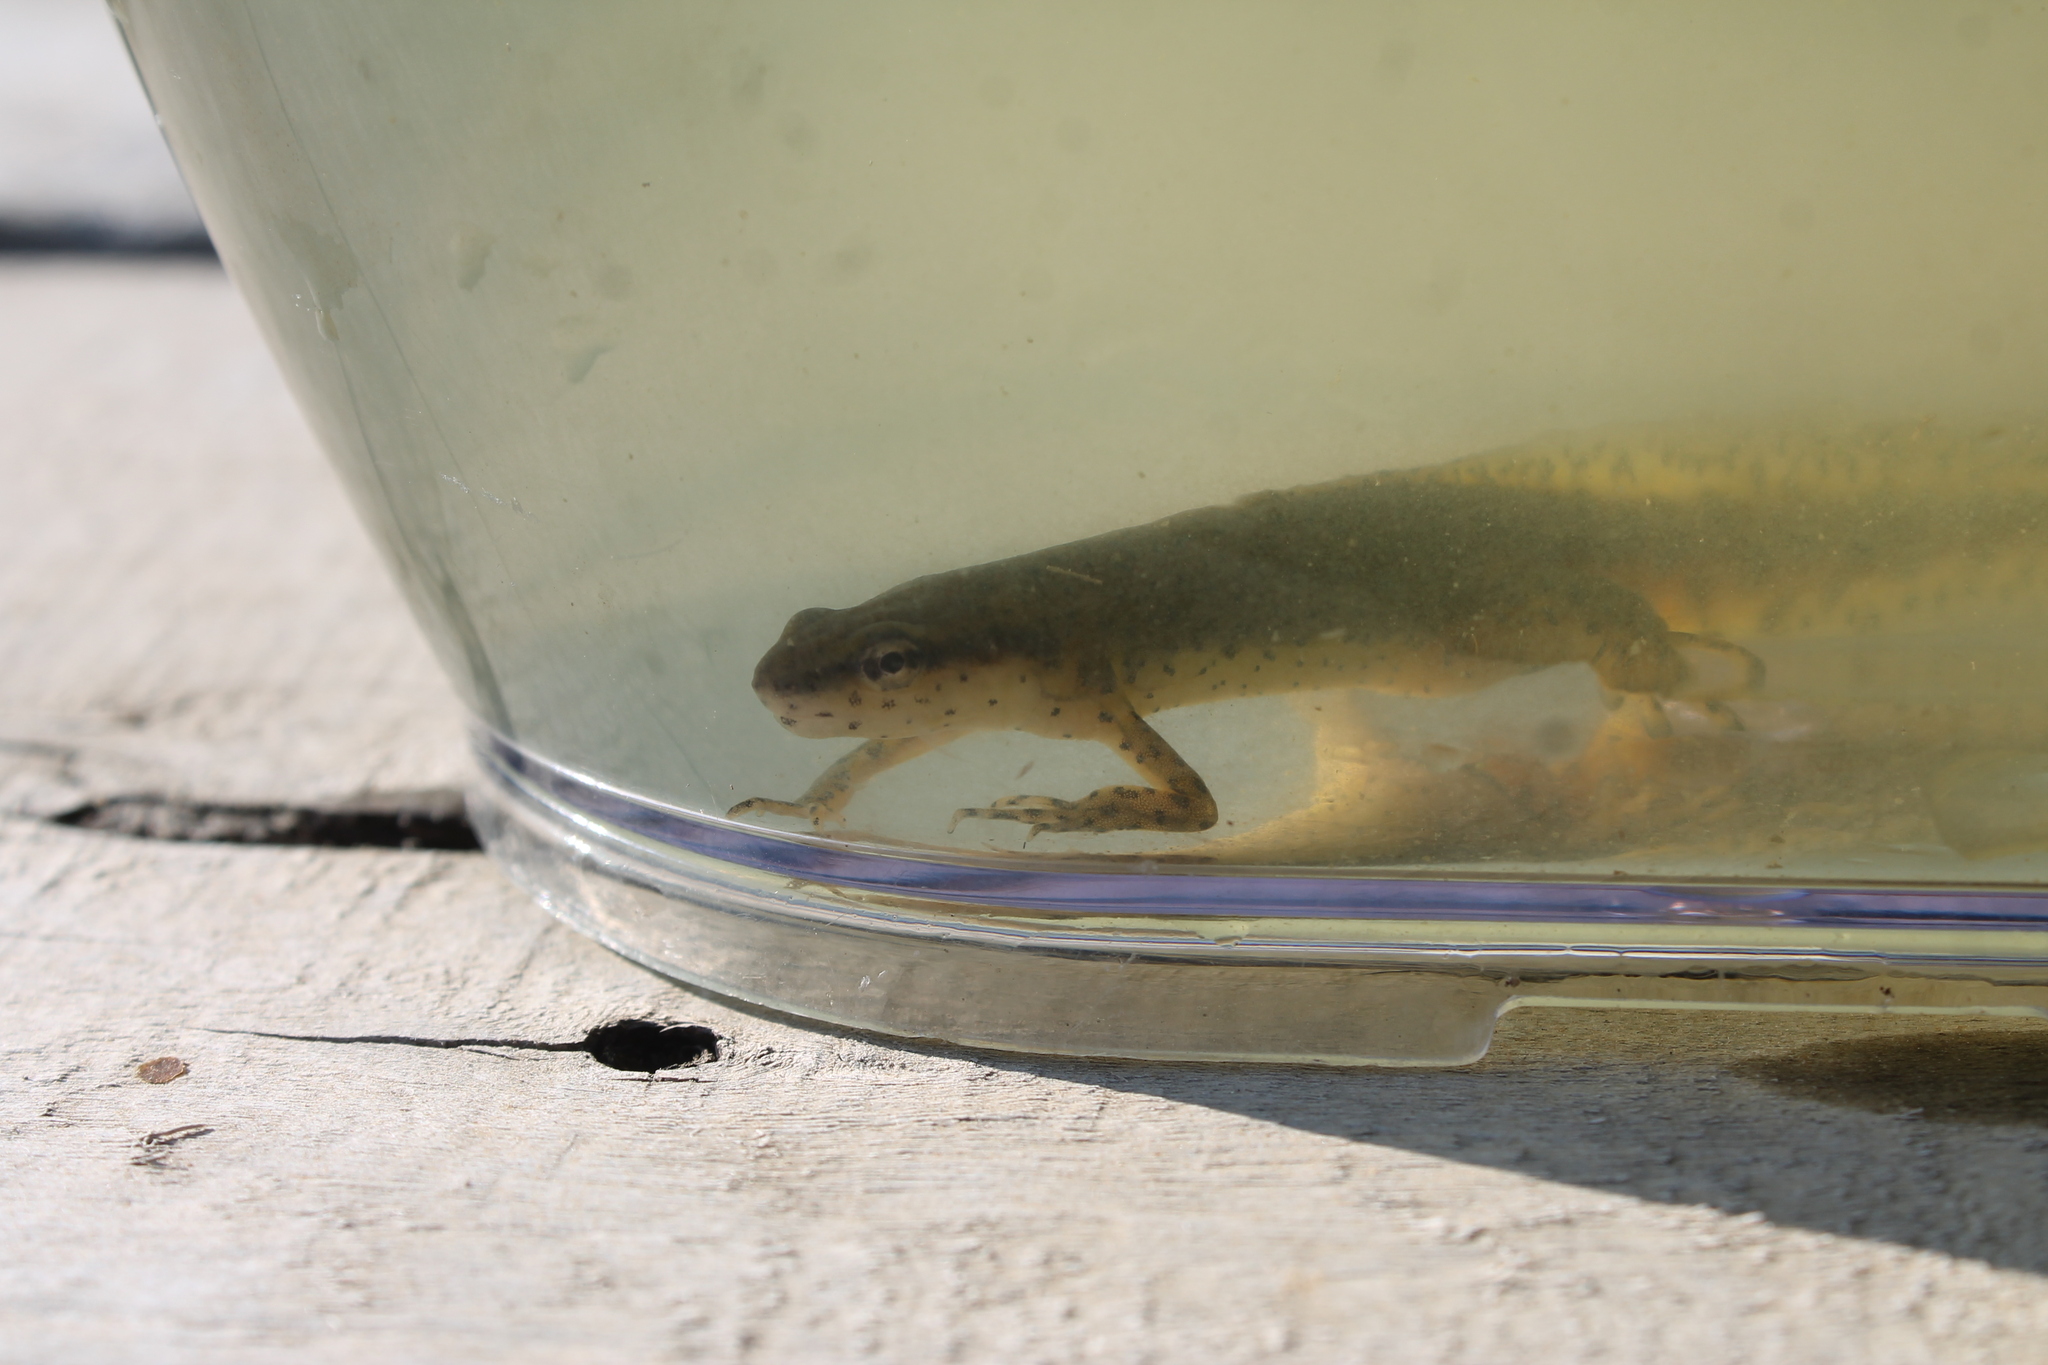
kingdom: Animalia
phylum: Chordata
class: Amphibia
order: Caudata
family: Salamandridae
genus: Notophthalmus
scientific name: Notophthalmus viridescens
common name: Eastern newt
